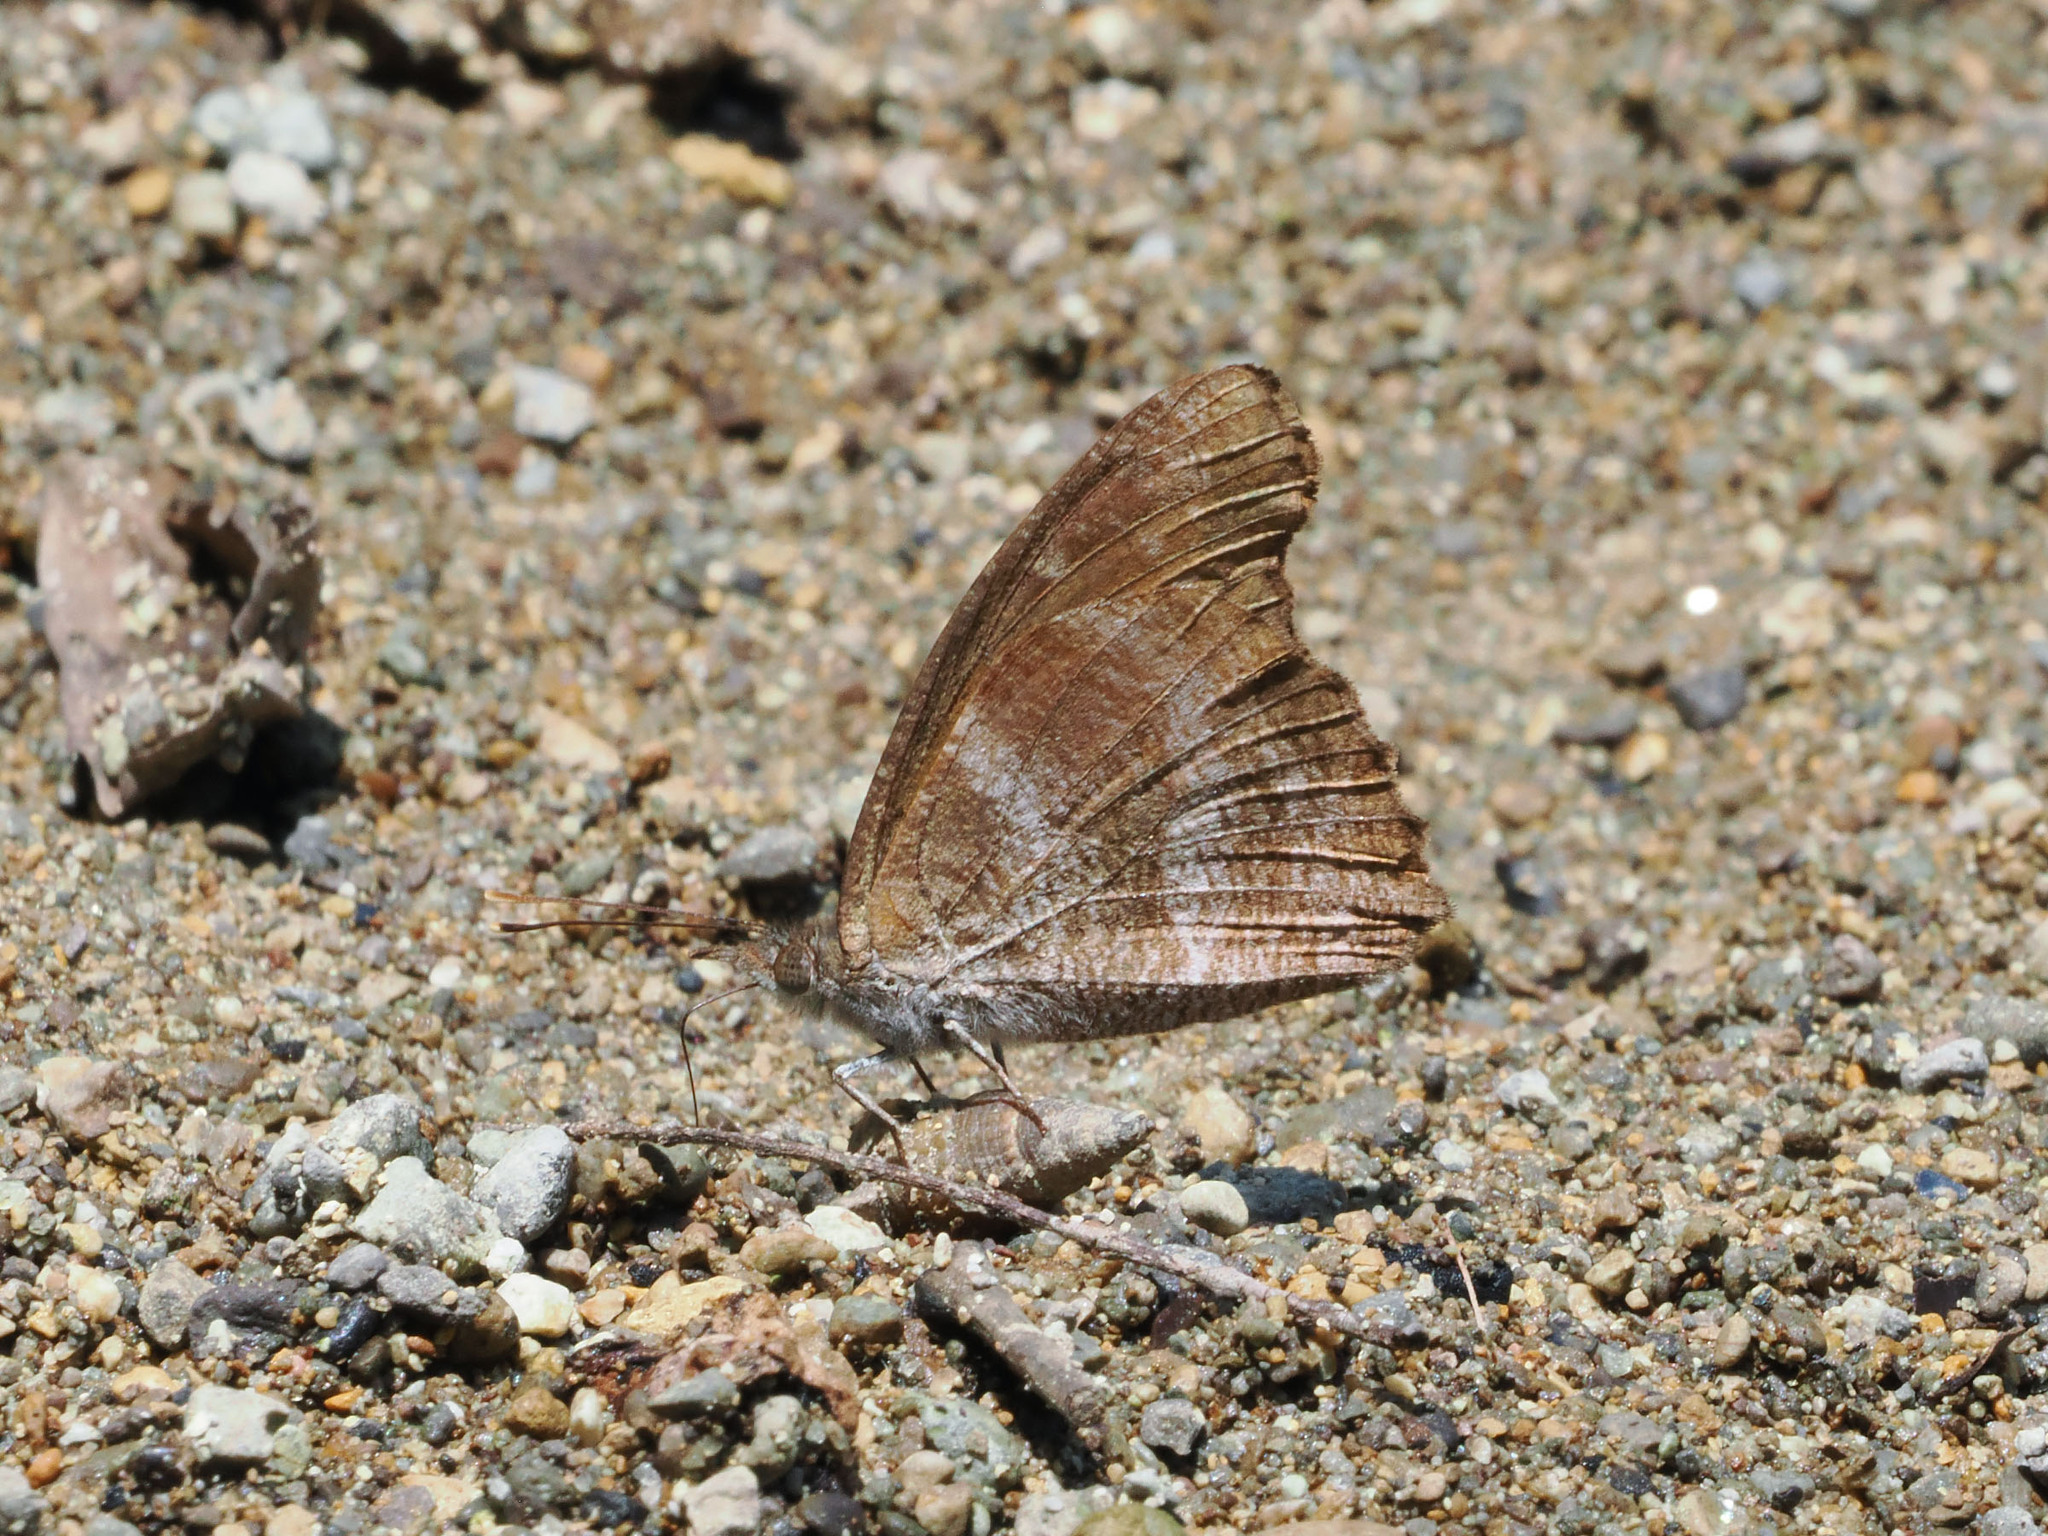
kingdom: Animalia
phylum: Arthropoda
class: Insecta
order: Lepidoptera
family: Nymphalidae
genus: Libythea
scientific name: Libythea geoffroy
